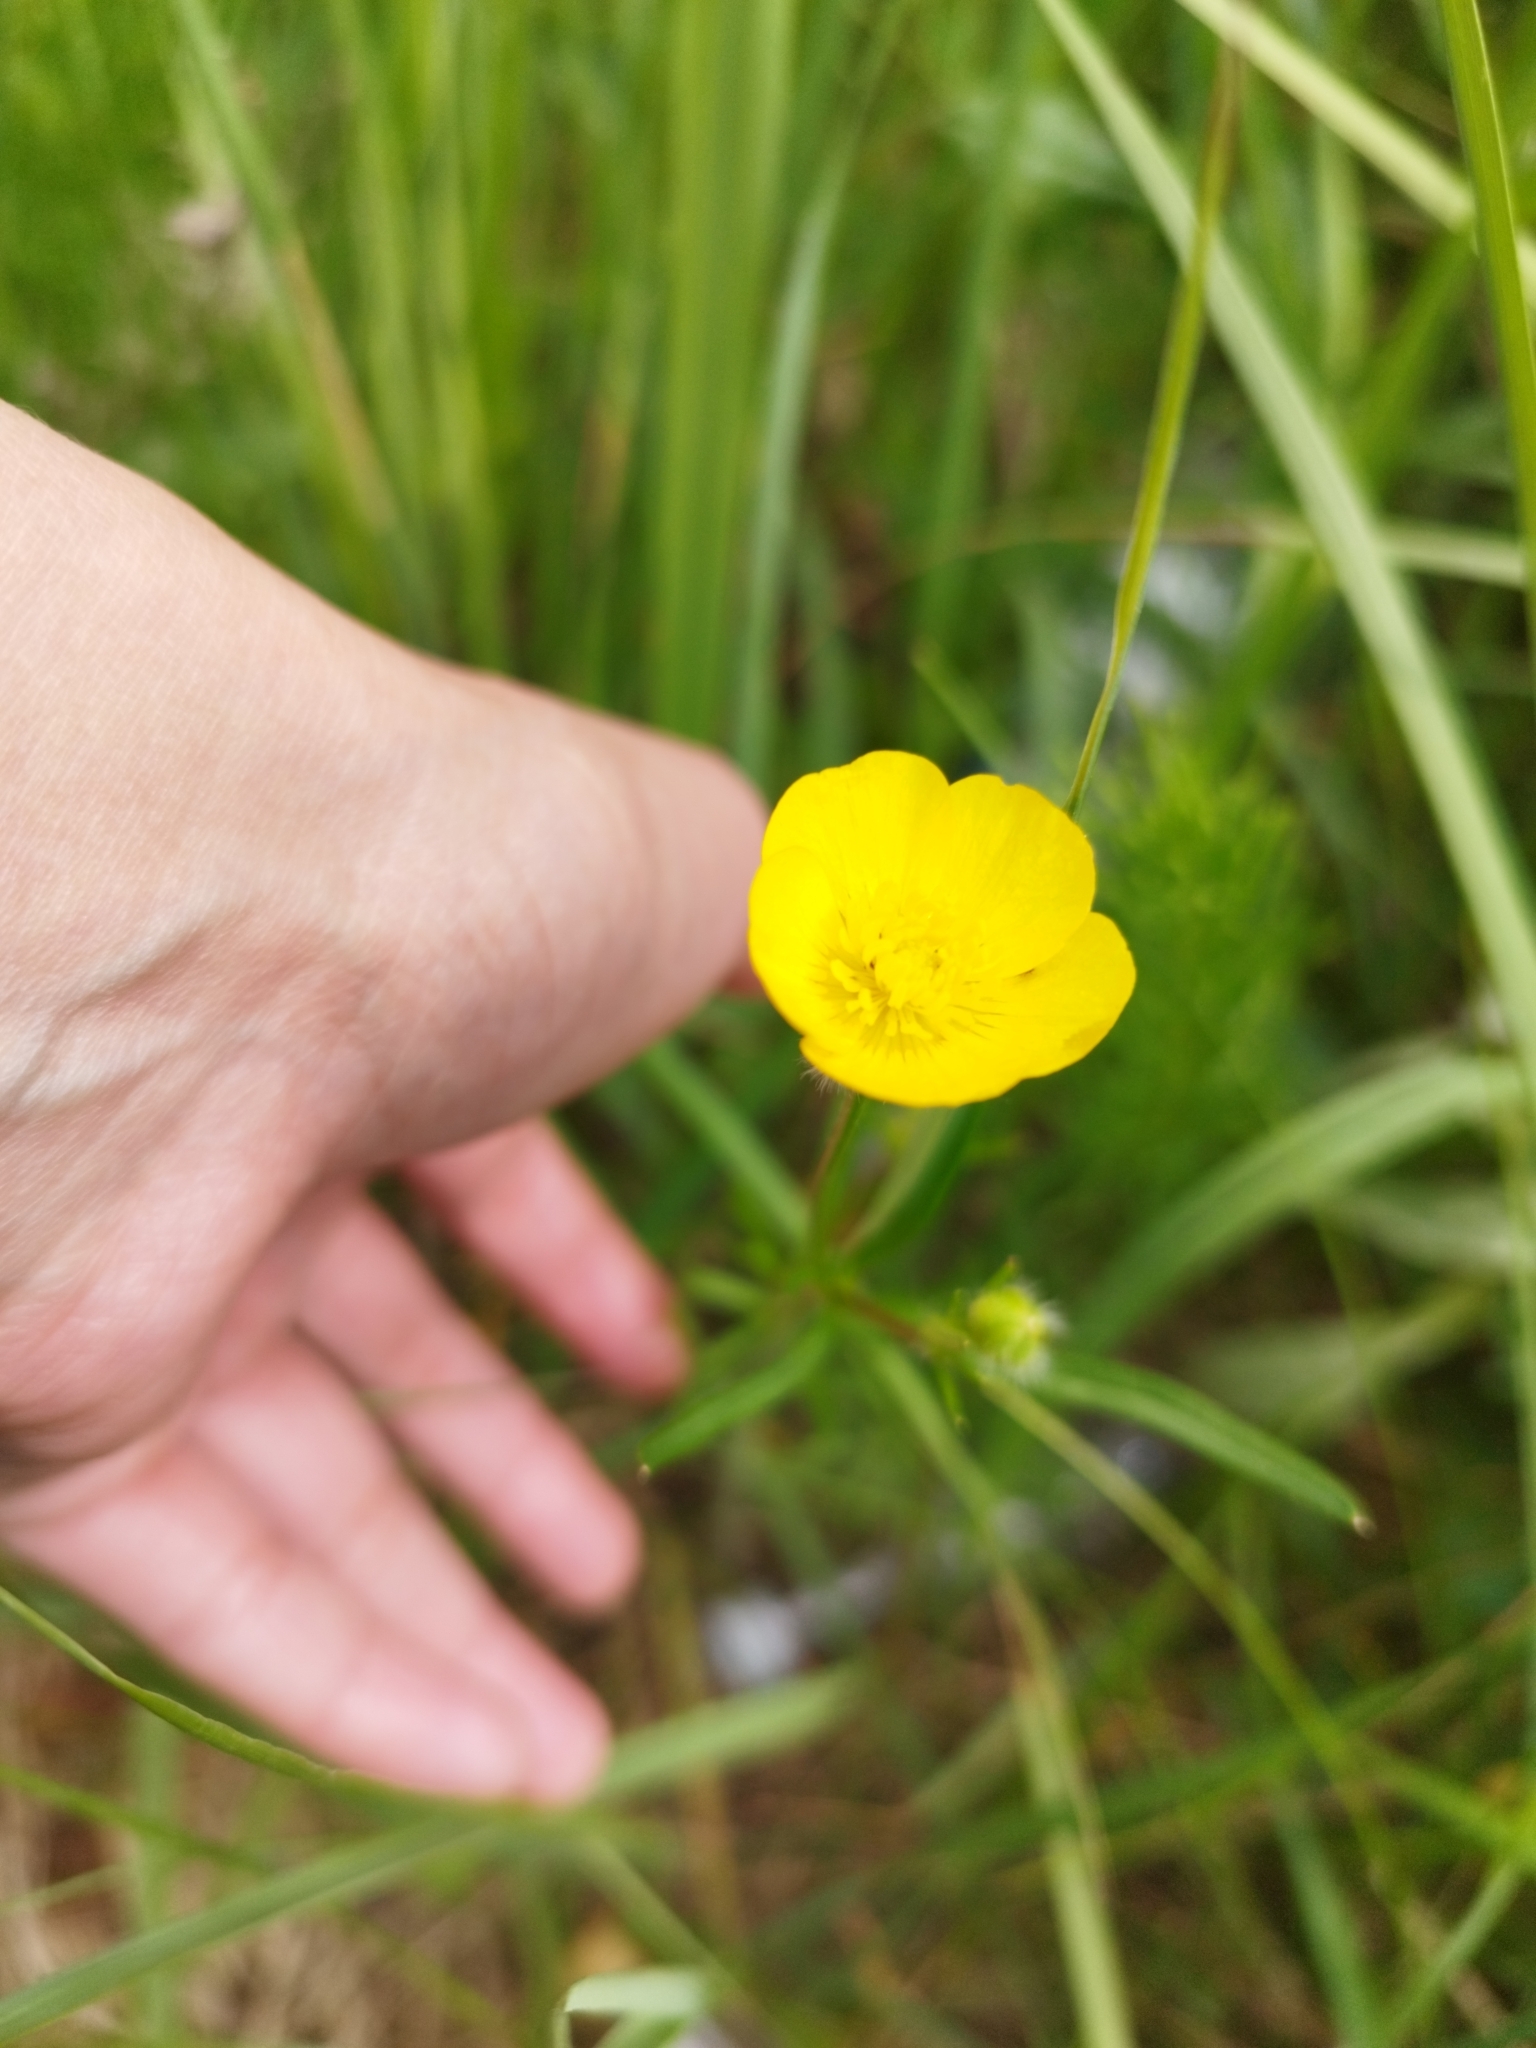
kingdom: Plantae
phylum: Tracheophyta
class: Magnoliopsida
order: Ranunculales
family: Ranunculaceae
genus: Ranunculus
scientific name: Ranunculus polyanthemos
